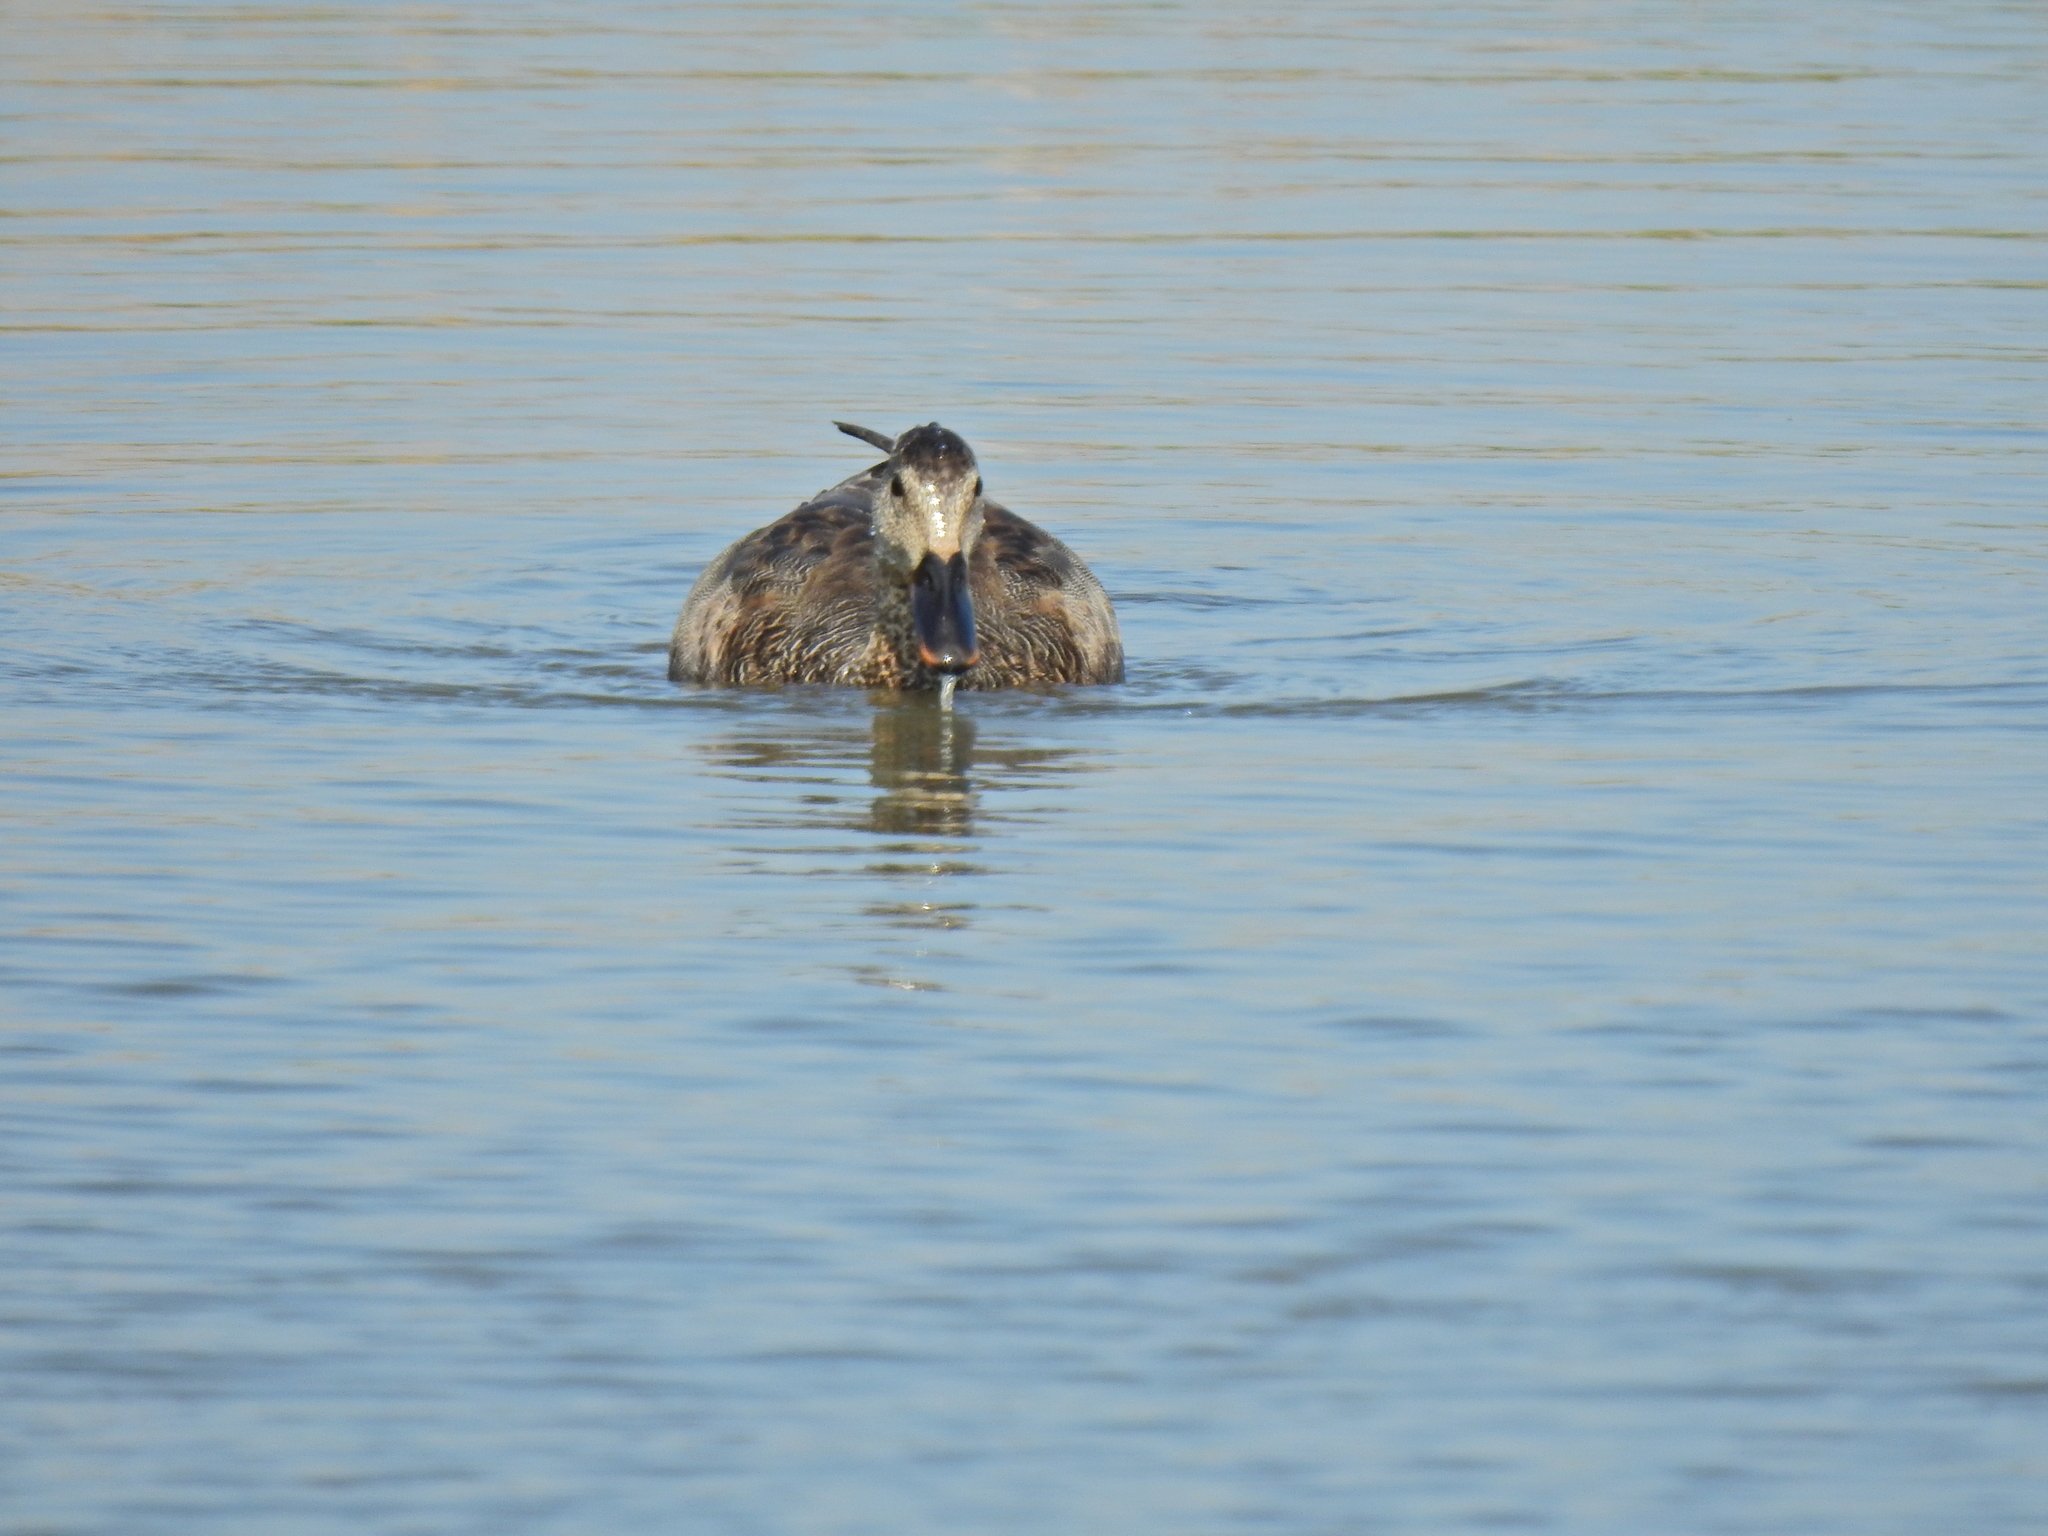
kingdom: Animalia
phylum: Chordata
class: Aves
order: Anseriformes
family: Anatidae
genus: Mareca
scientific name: Mareca strepera
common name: Gadwall
